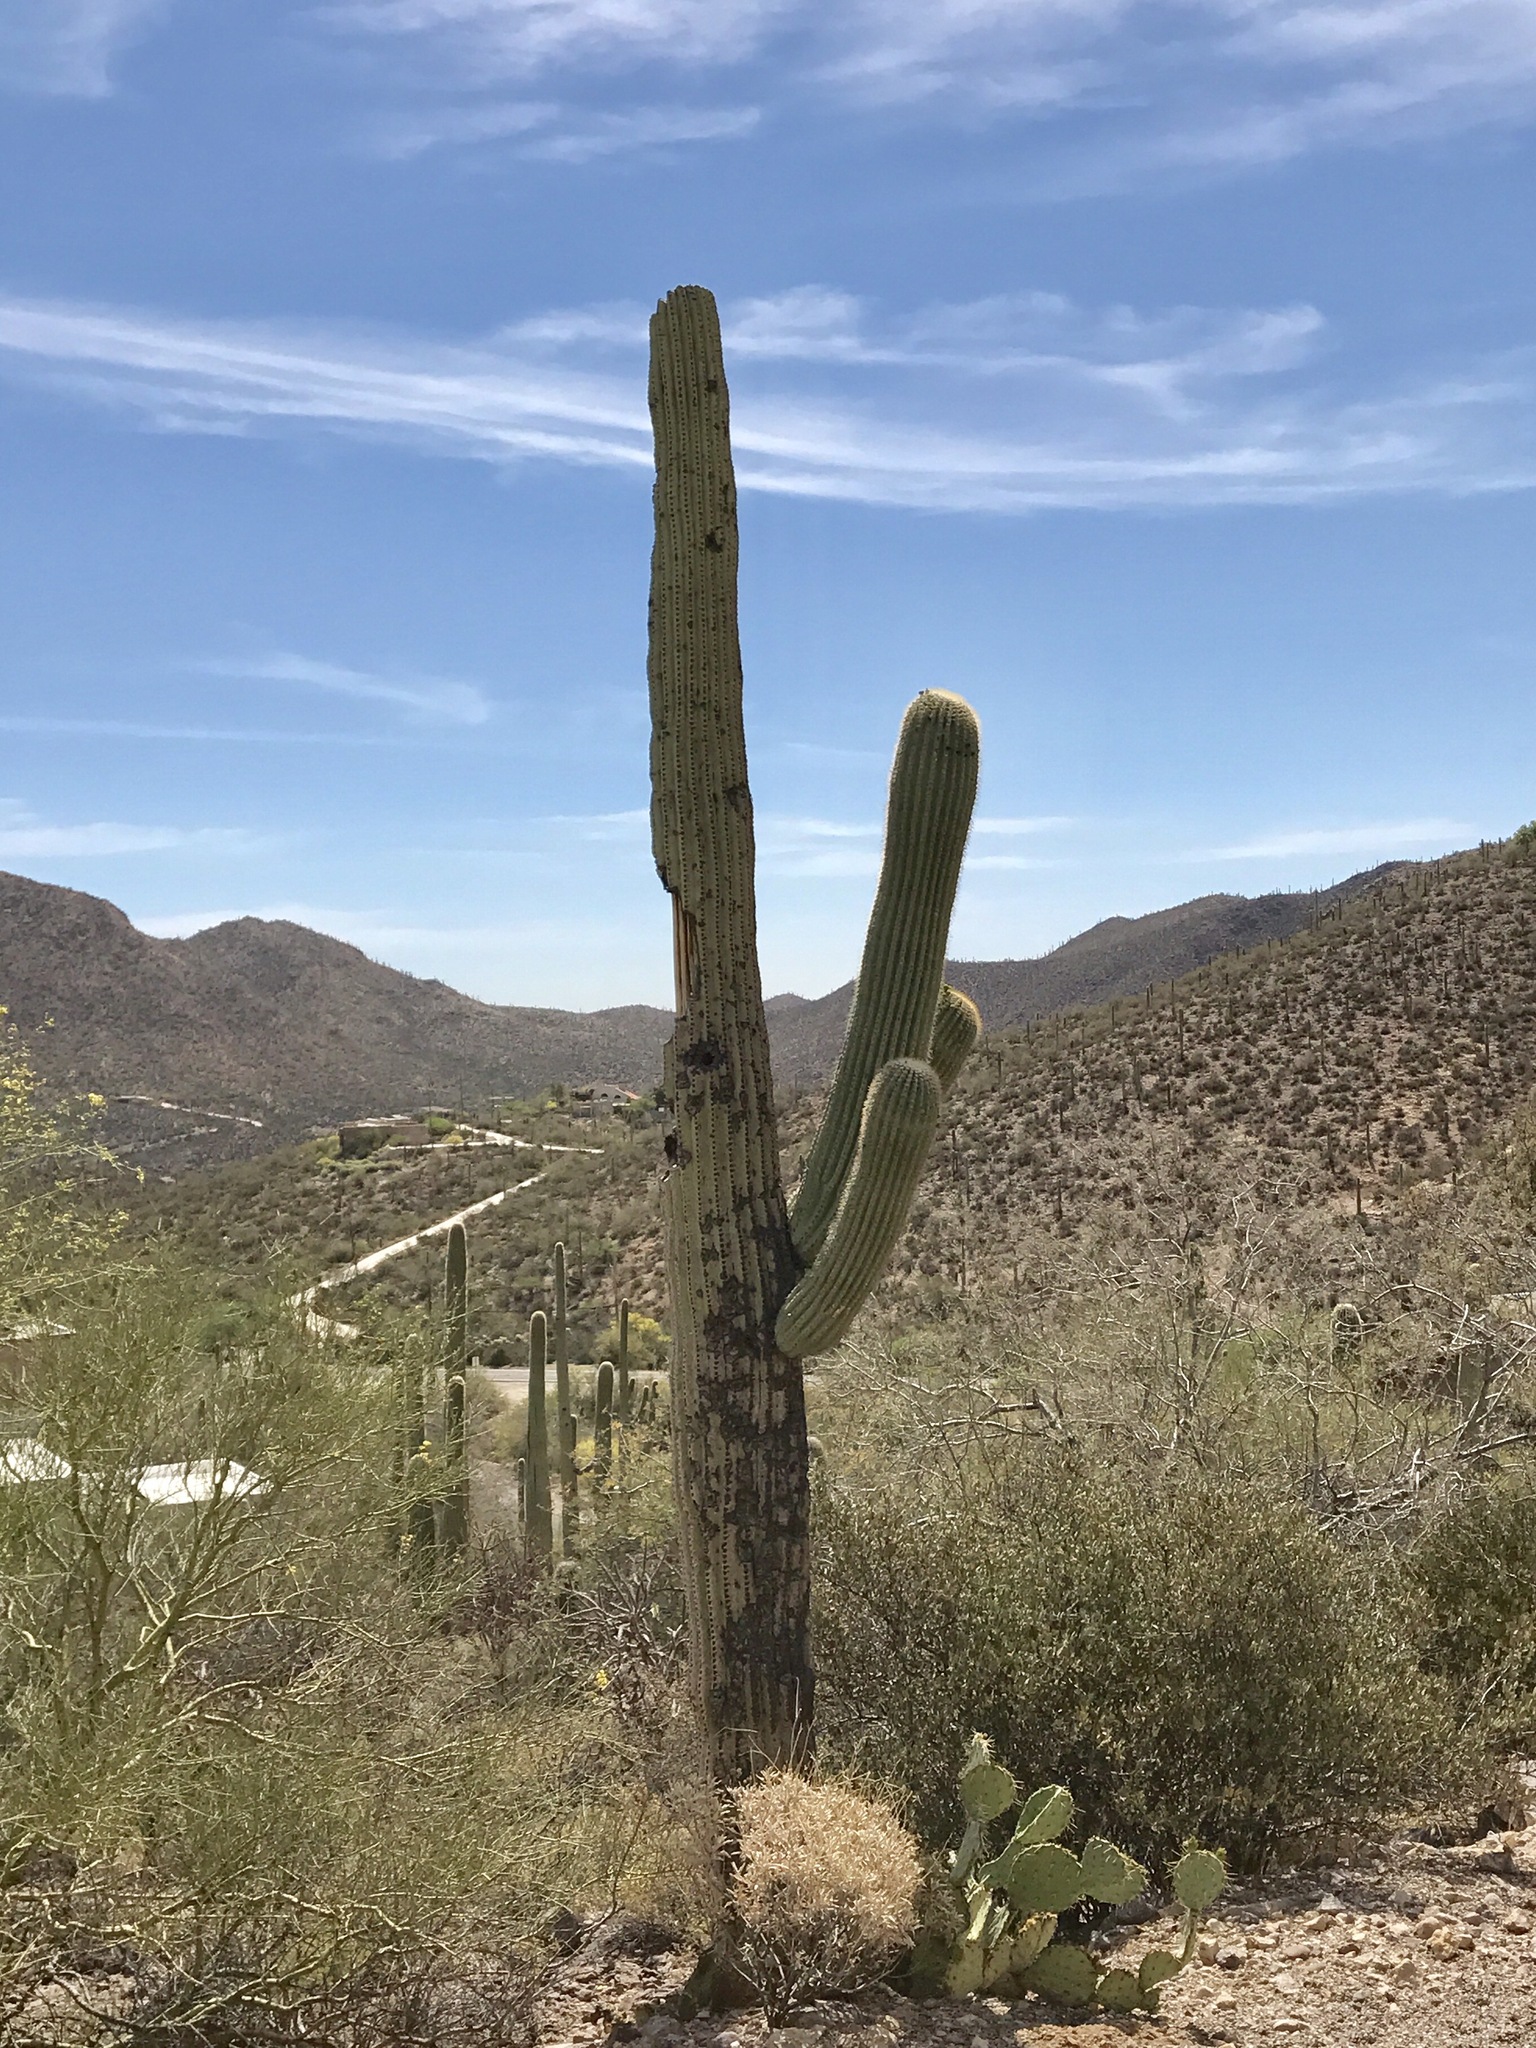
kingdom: Plantae
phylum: Tracheophyta
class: Magnoliopsida
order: Caryophyllales
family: Cactaceae
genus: Carnegiea
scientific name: Carnegiea gigantea
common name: Saguaro
